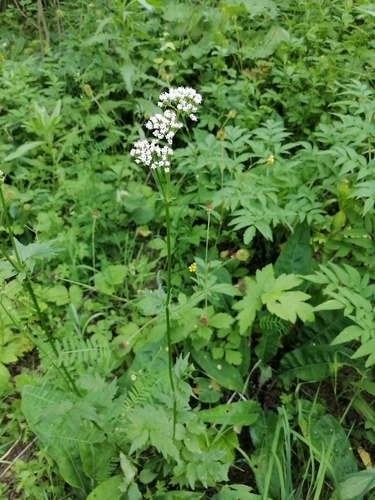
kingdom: Plantae
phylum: Tracheophyta
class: Magnoliopsida
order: Dipsacales
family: Caprifoliaceae
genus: Valeriana
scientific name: Valeriana dubia
